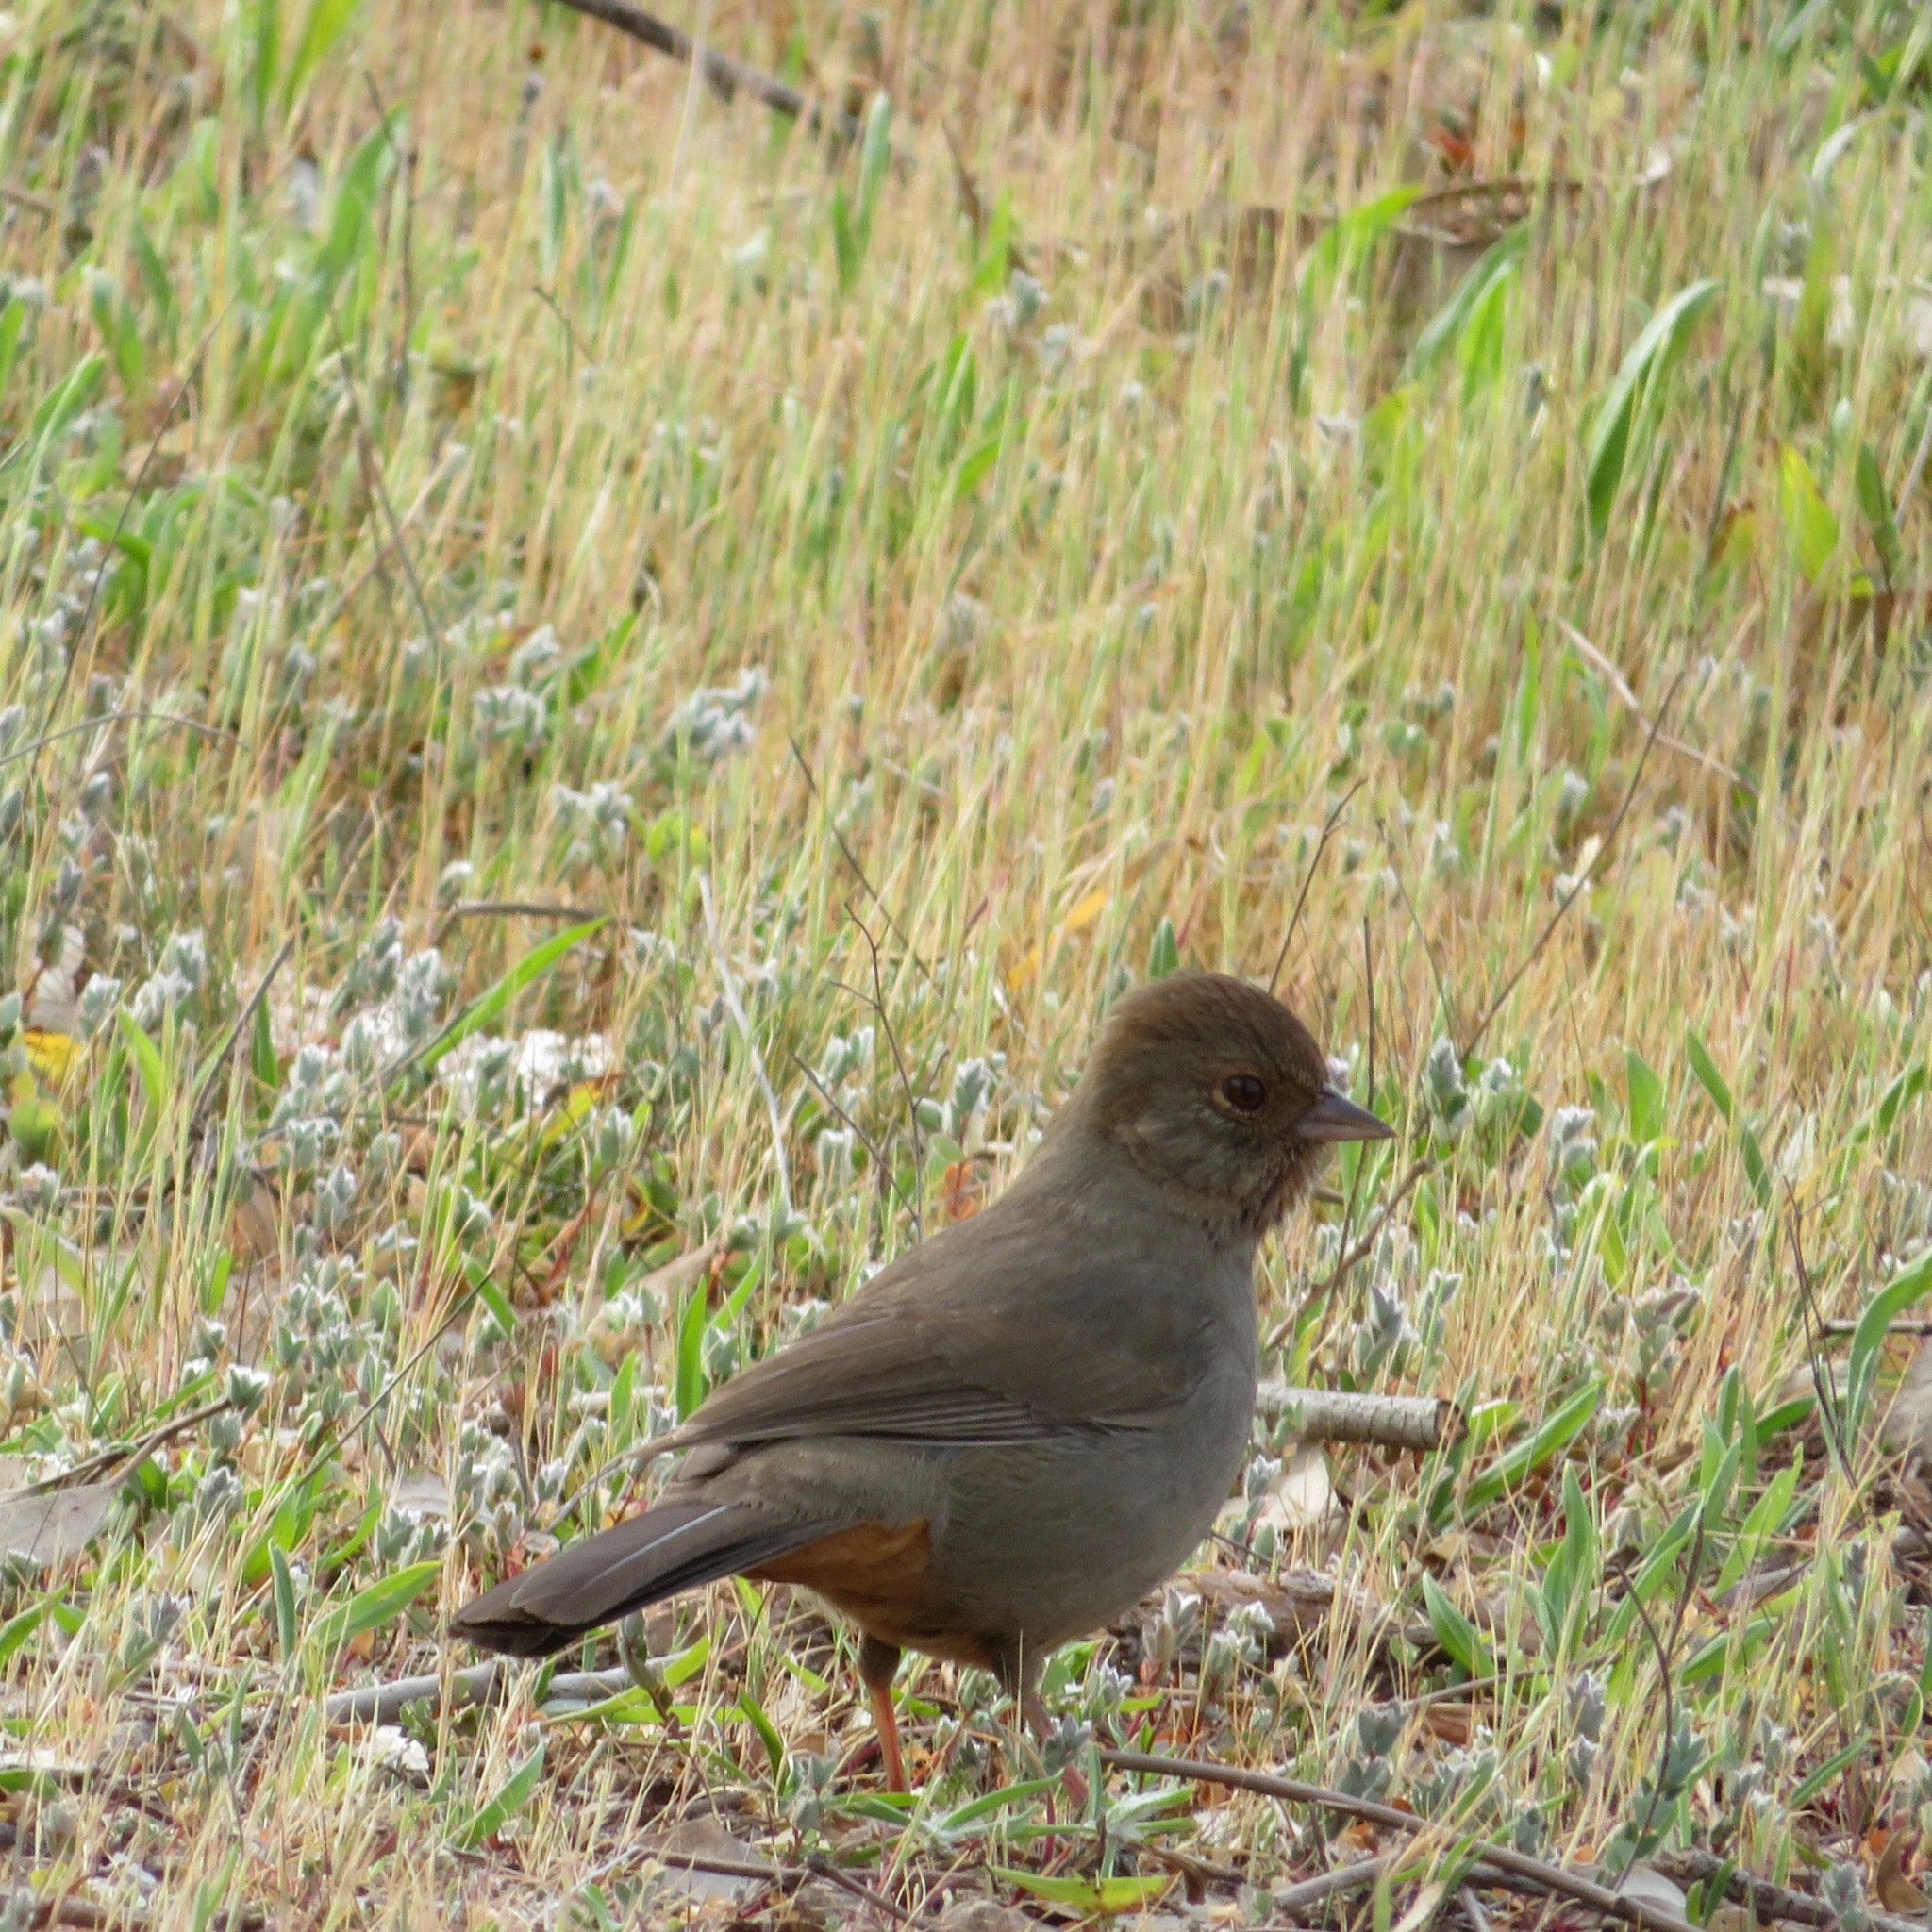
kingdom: Animalia
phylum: Chordata
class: Aves
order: Passeriformes
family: Passerellidae
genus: Melozone
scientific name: Melozone crissalis
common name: California towhee
